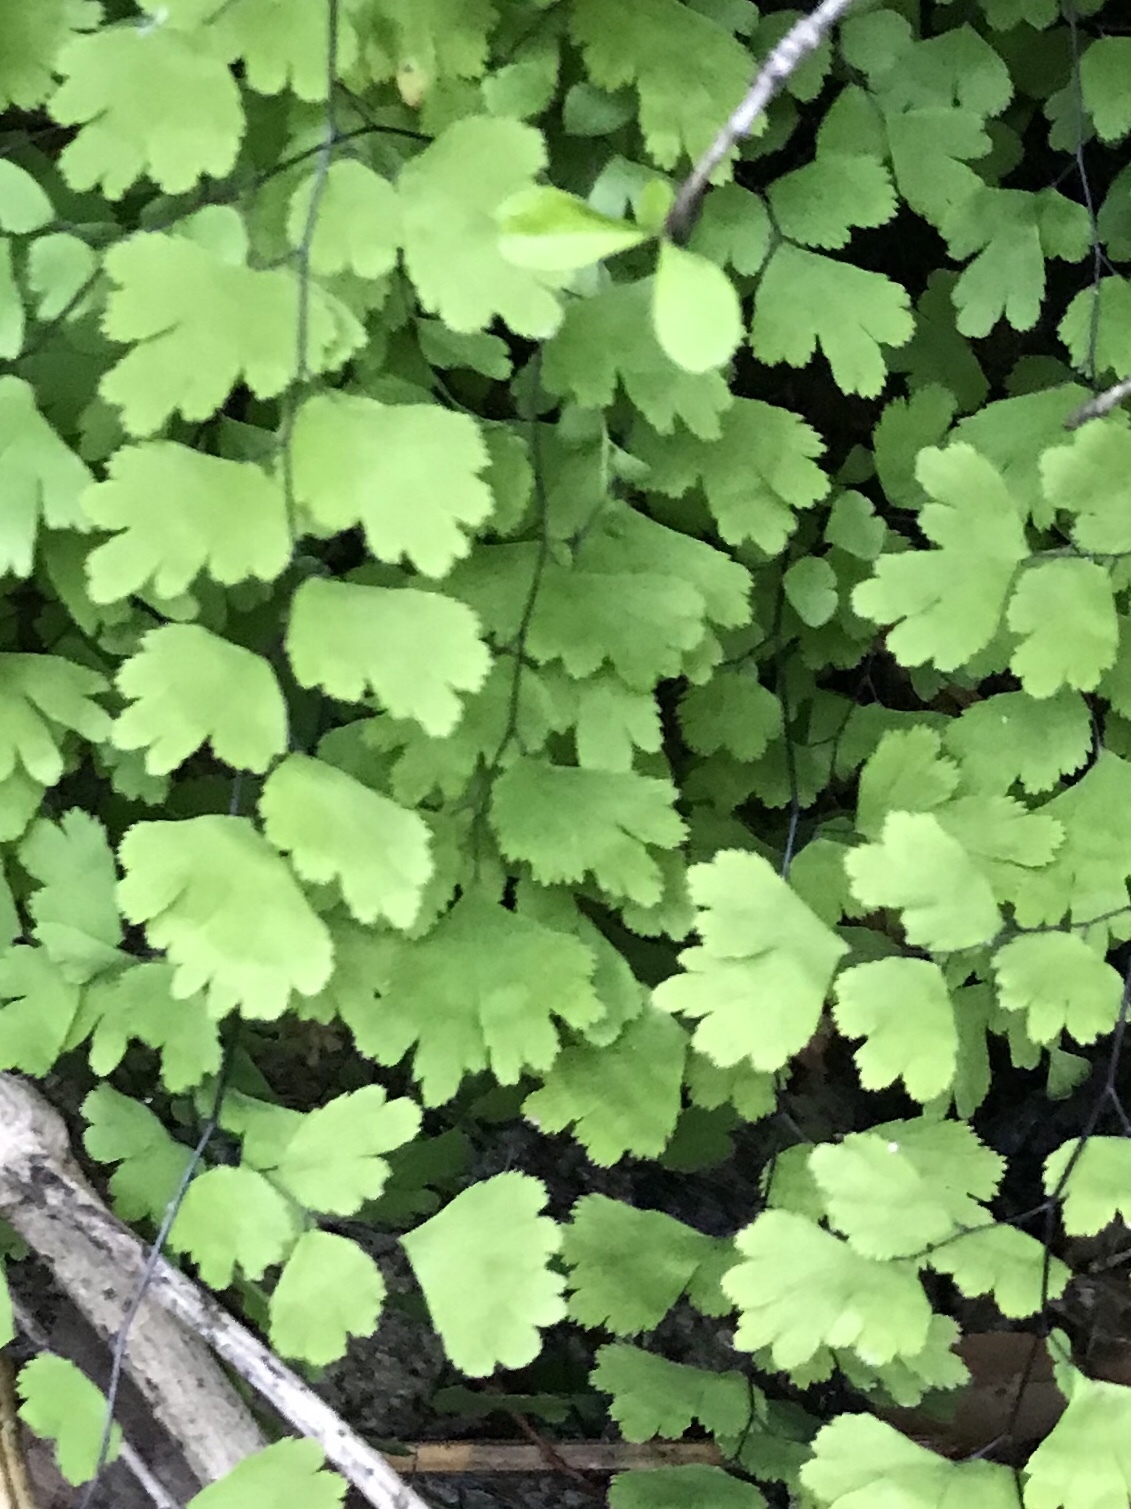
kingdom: Plantae
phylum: Tracheophyta
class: Polypodiopsida
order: Polypodiales
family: Pteridaceae
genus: Adiantum
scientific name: Adiantum capillus-veneris
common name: Maidenhair fern
